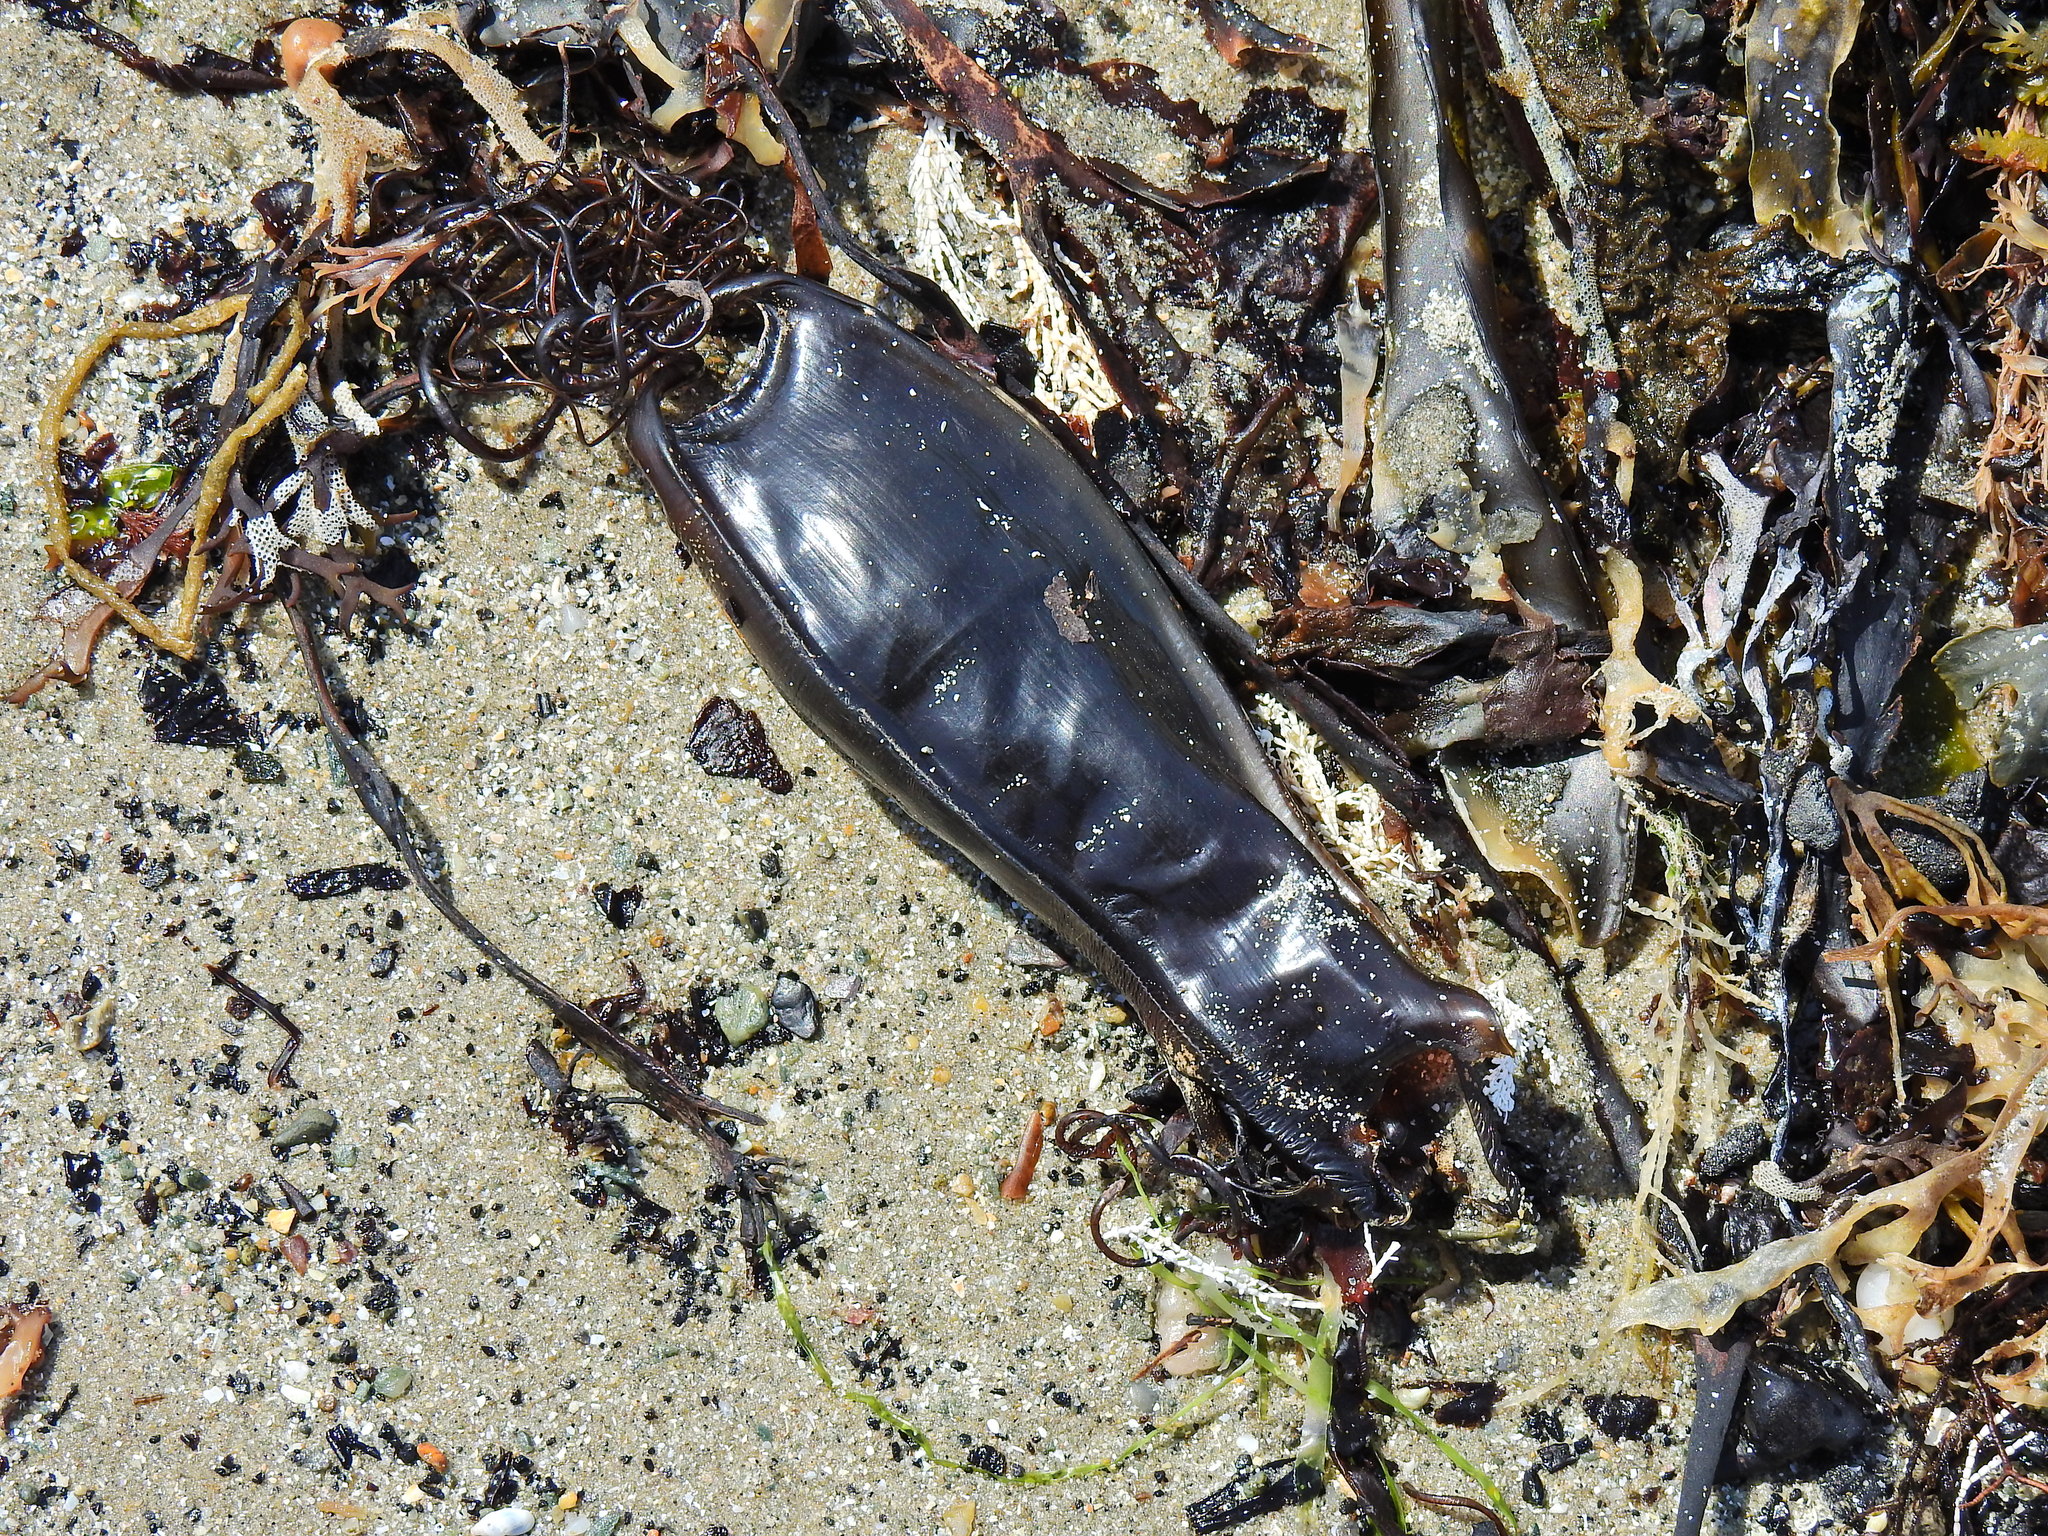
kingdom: Animalia
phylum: Chordata
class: Elasmobranchii
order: Carcharhiniformes
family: Scyliorhinidae
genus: Scyliorhinus
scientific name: Scyliorhinus stellaris
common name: Nursehound
